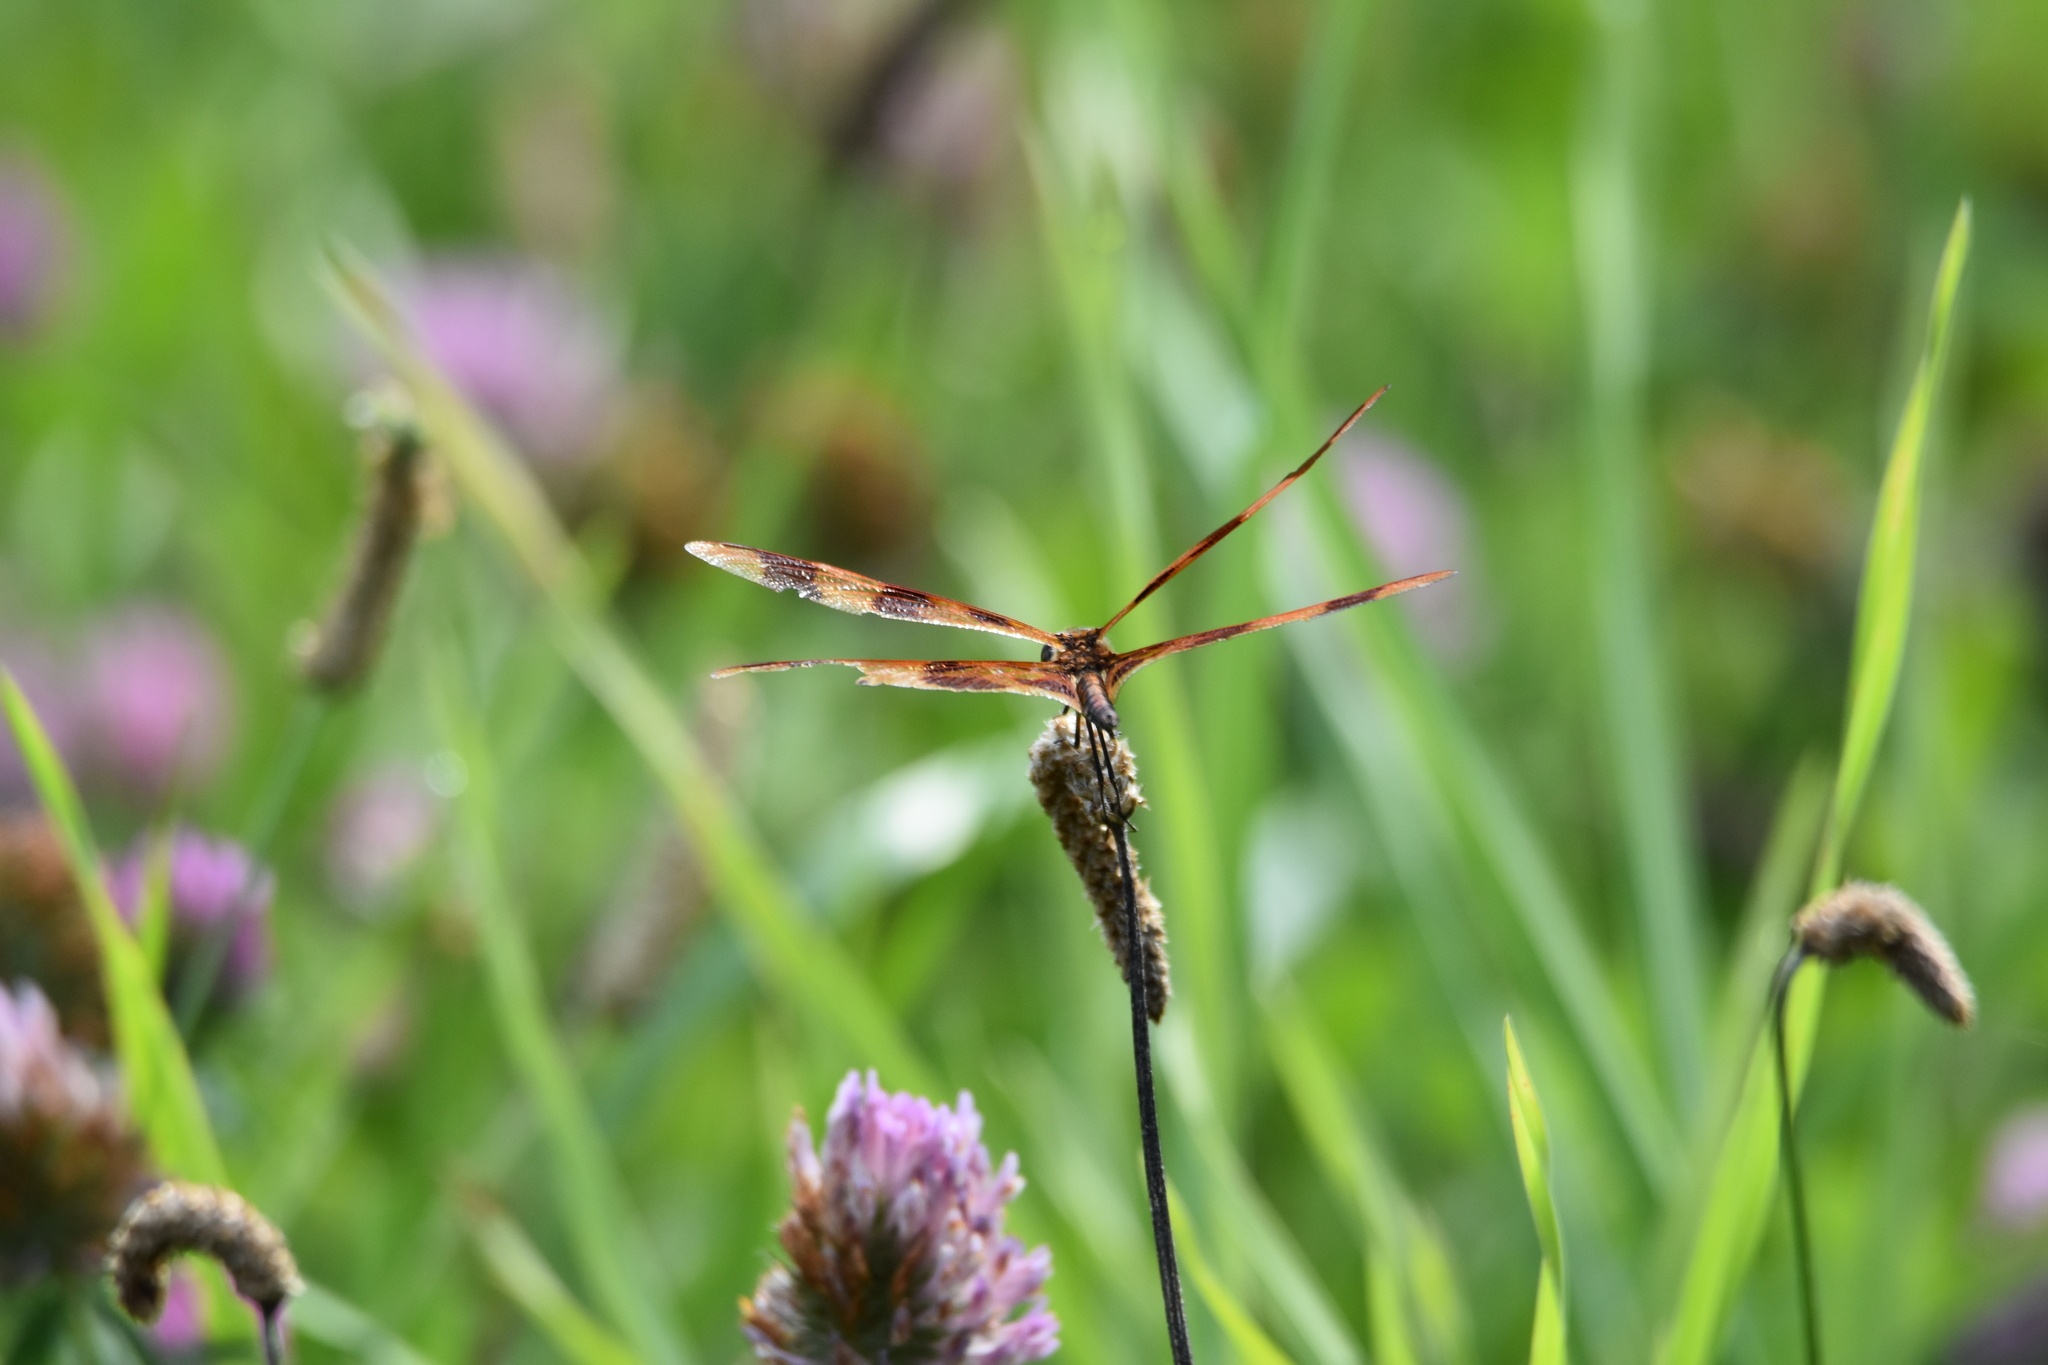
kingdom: Animalia
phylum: Arthropoda
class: Insecta
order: Odonata
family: Libellulidae
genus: Celithemis
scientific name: Celithemis eponina
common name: Halloween pennant
